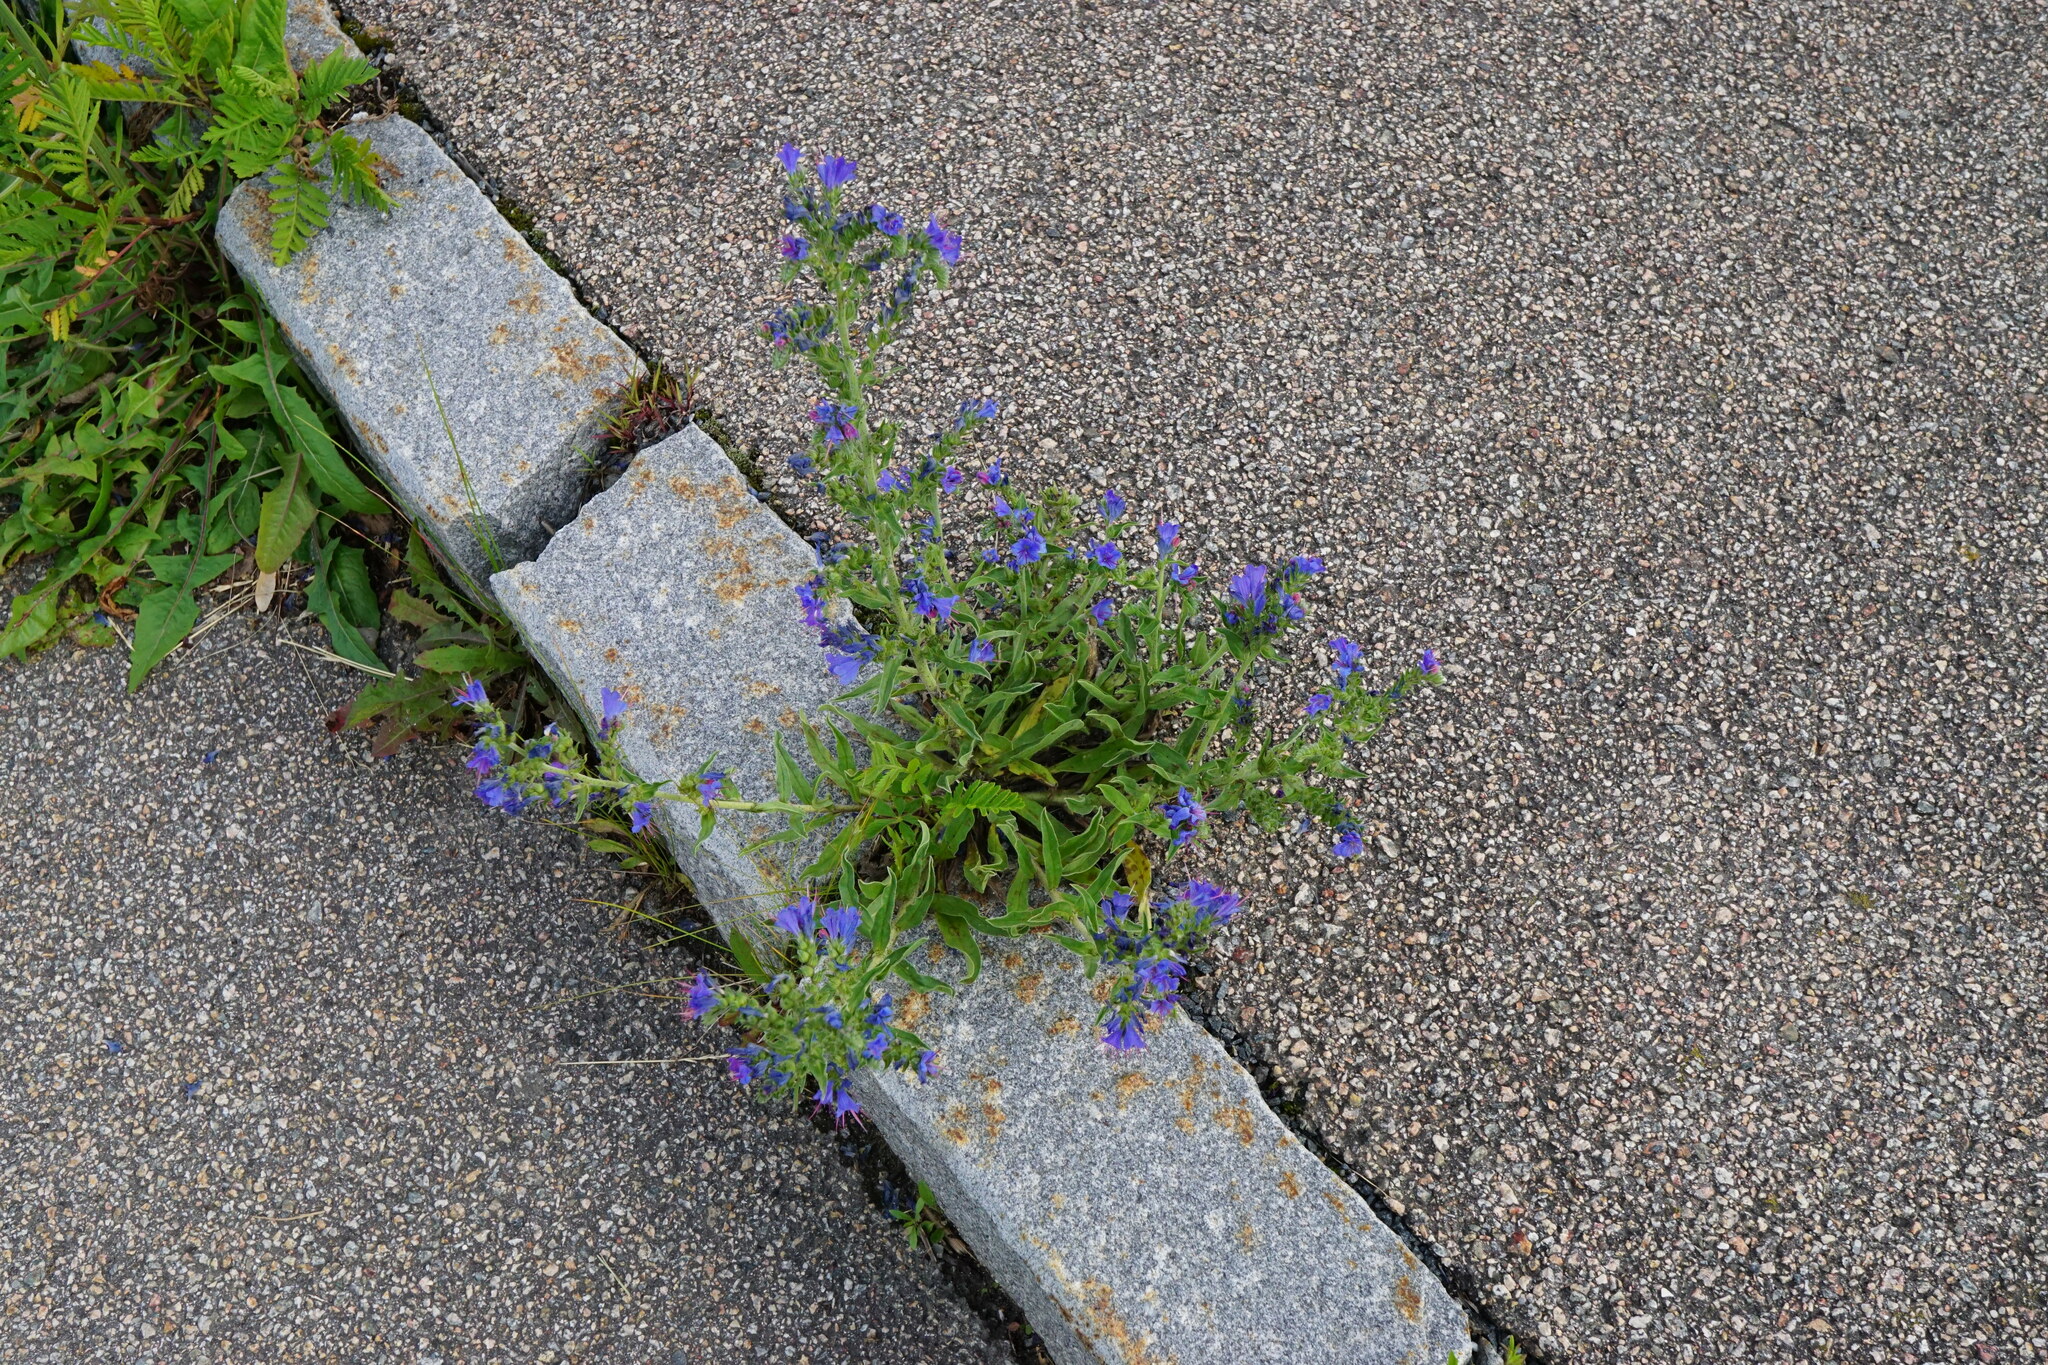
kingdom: Plantae
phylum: Tracheophyta
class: Magnoliopsida
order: Boraginales
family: Boraginaceae
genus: Echium
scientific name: Echium vulgare
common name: Common viper's bugloss
